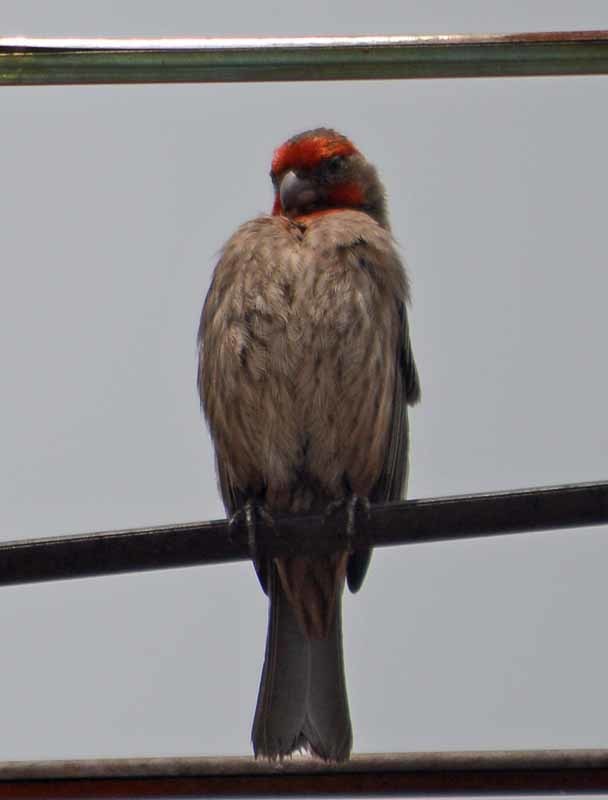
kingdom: Animalia
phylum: Chordata
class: Aves
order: Passeriformes
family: Fringillidae
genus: Haemorhous
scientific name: Haemorhous mexicanus
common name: House finch
